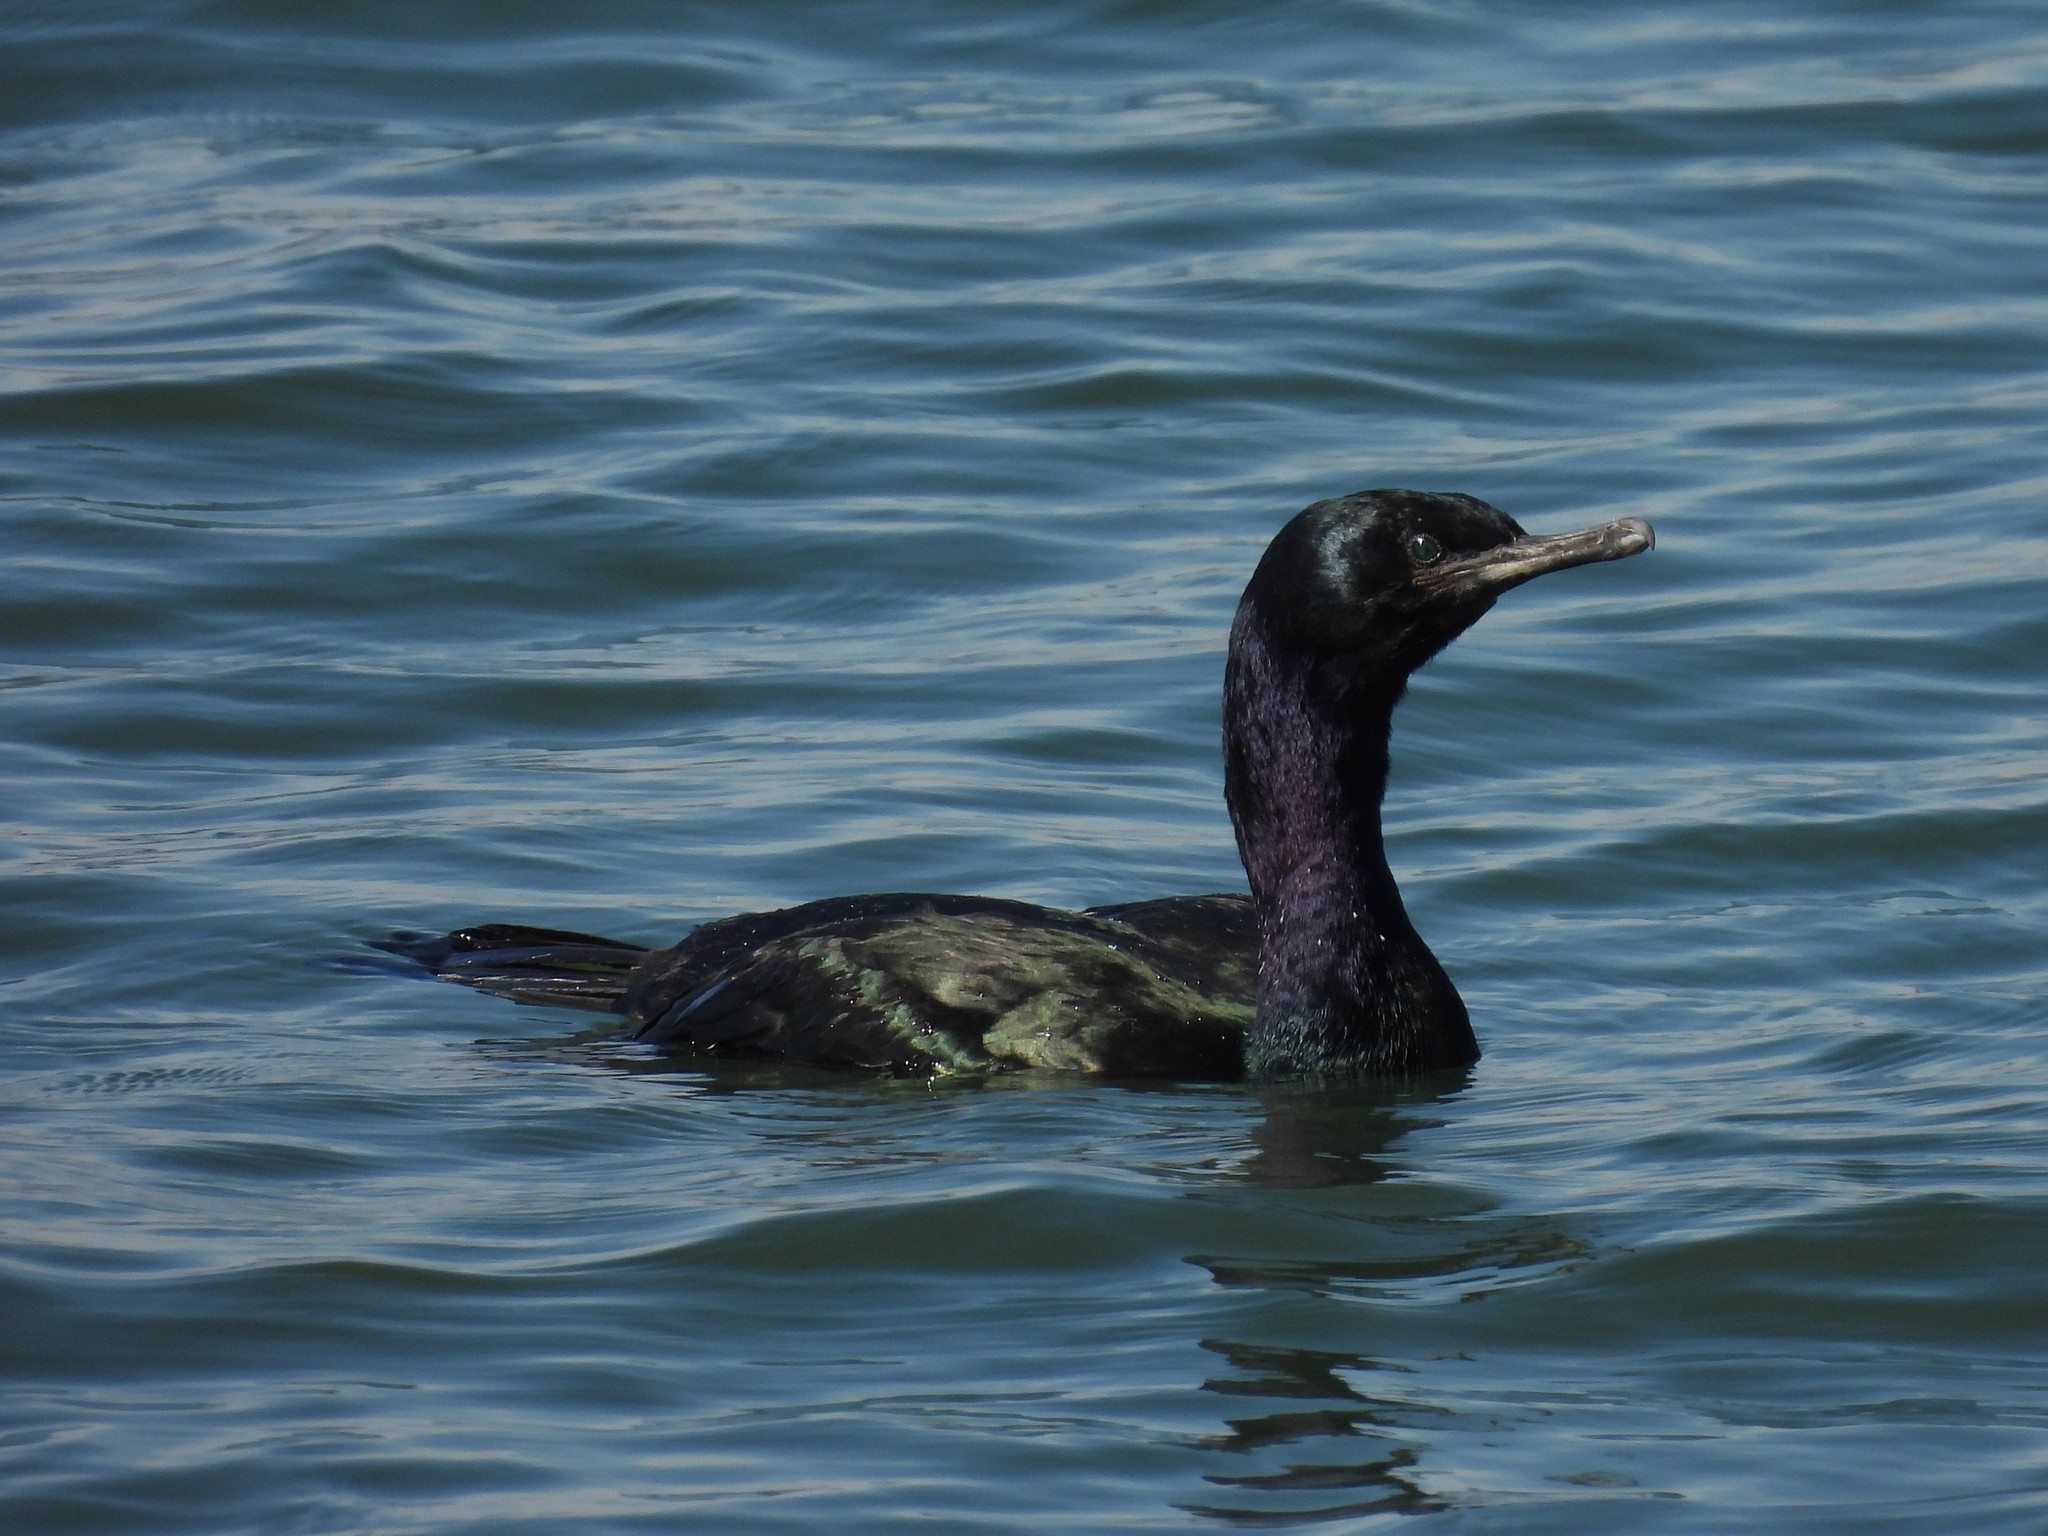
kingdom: Animalia
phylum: Chordata
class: Aves
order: Suliformes
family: Phalacrocoracidae
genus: Phalacrocorax
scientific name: Phalacrocorax pelagicus
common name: Pelagic cormorant
